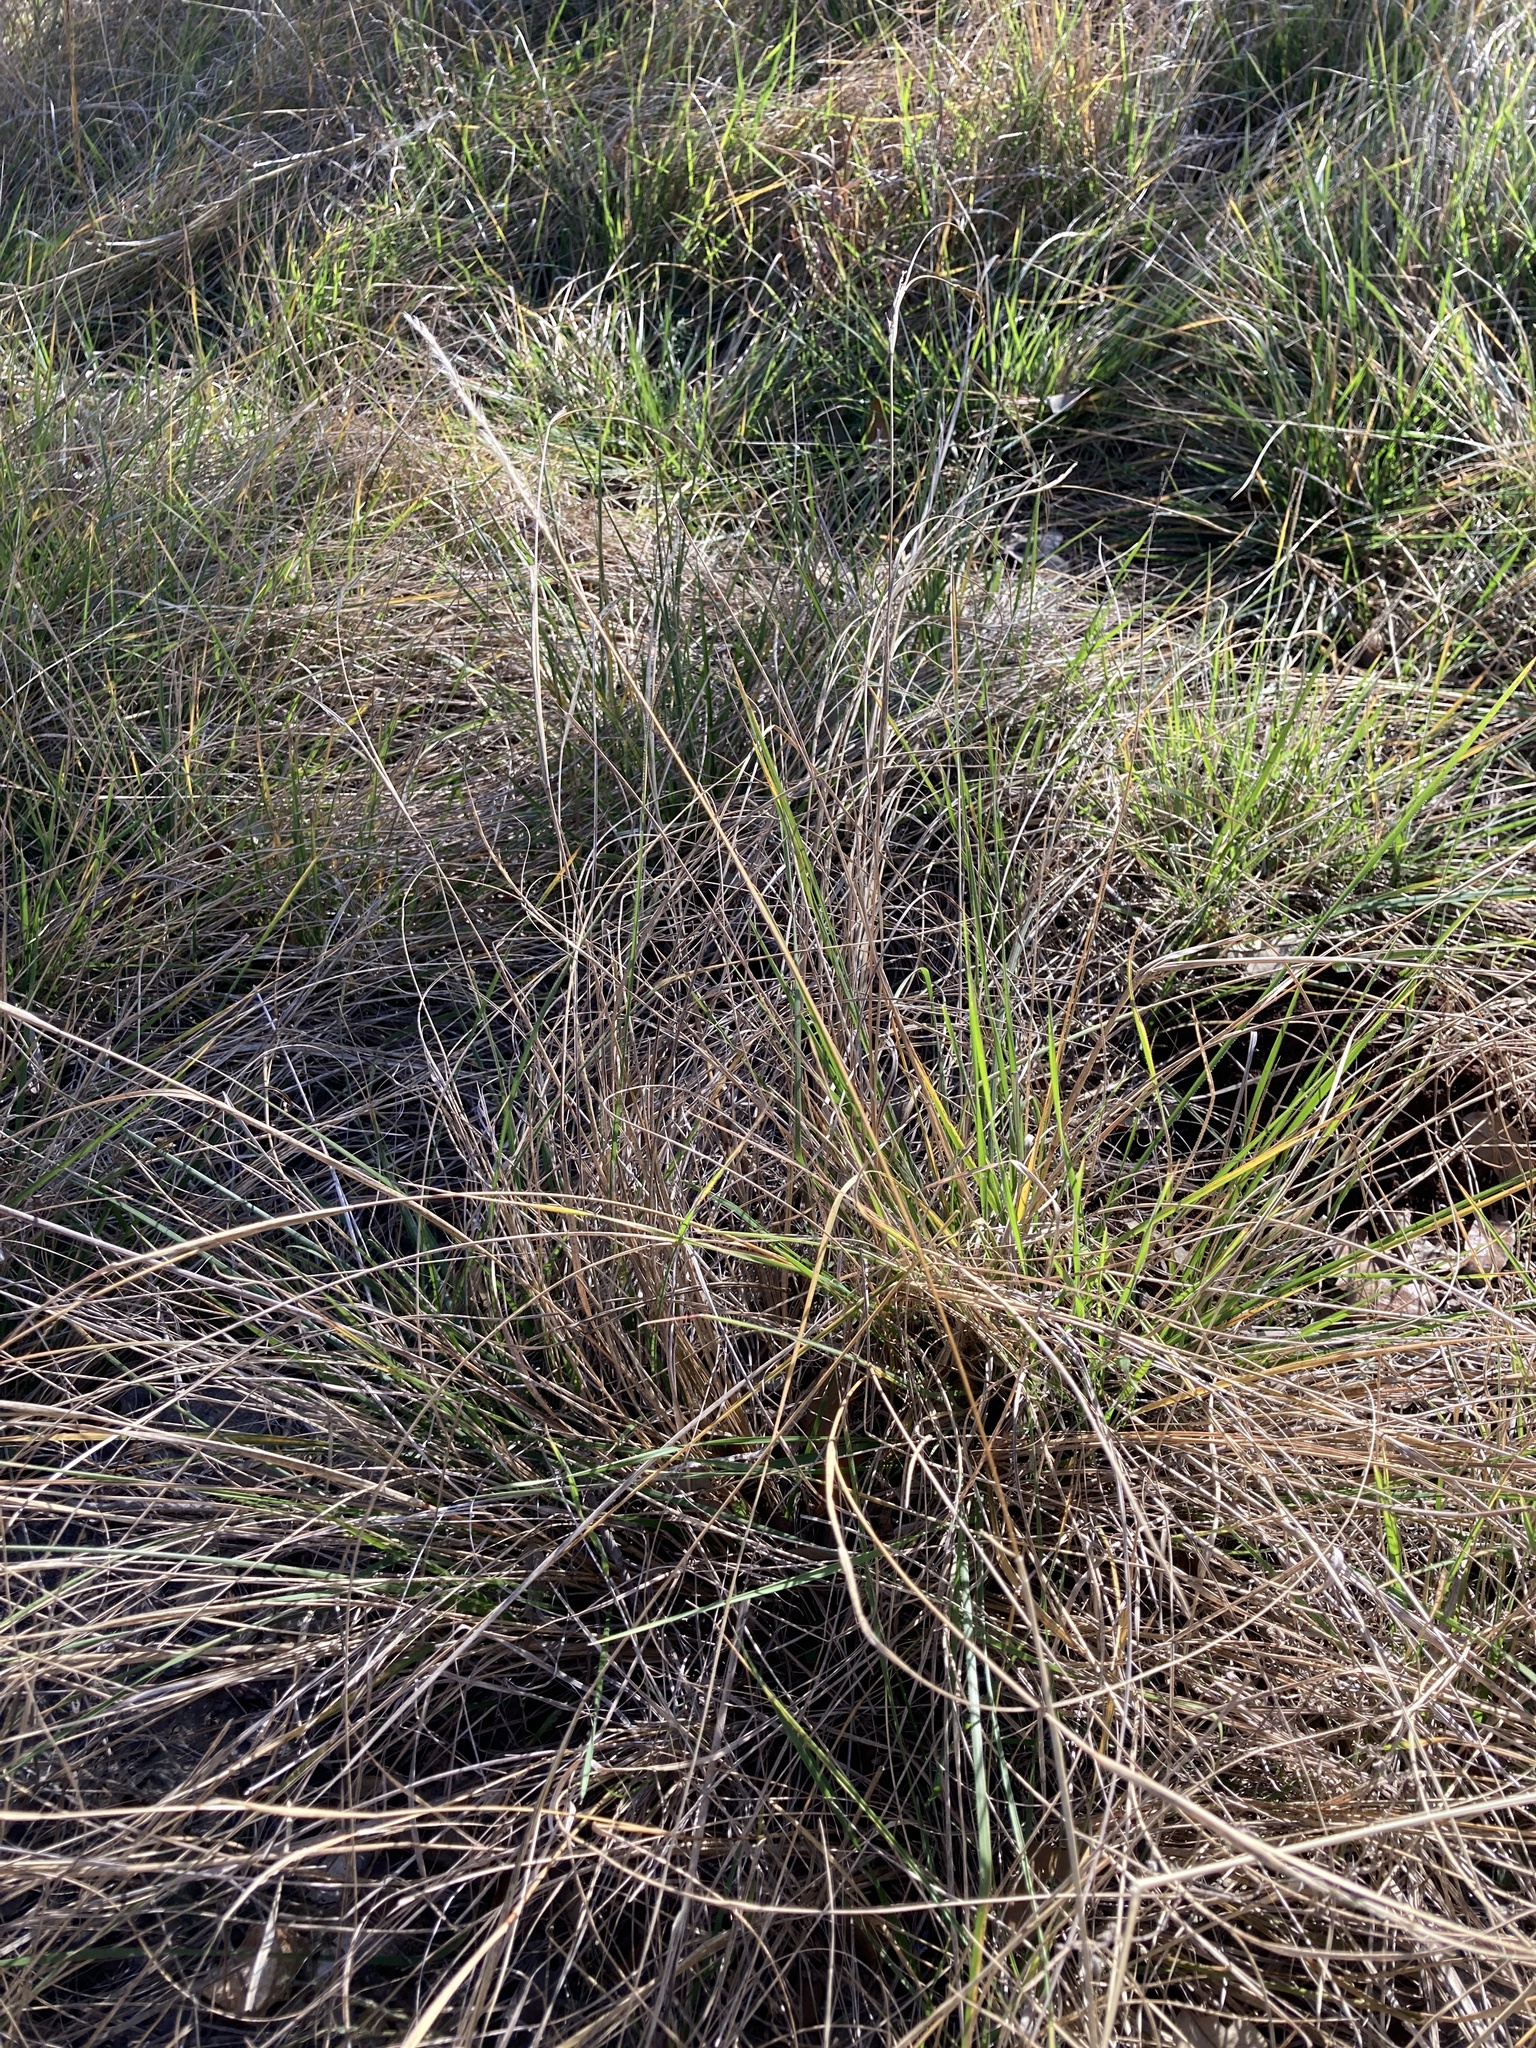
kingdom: Plantae
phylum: Tracheophyta
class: Liliopsida
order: Poales
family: Poaceae
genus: Eriochloa
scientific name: Eriochloa sericea
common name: Texas cup grass
